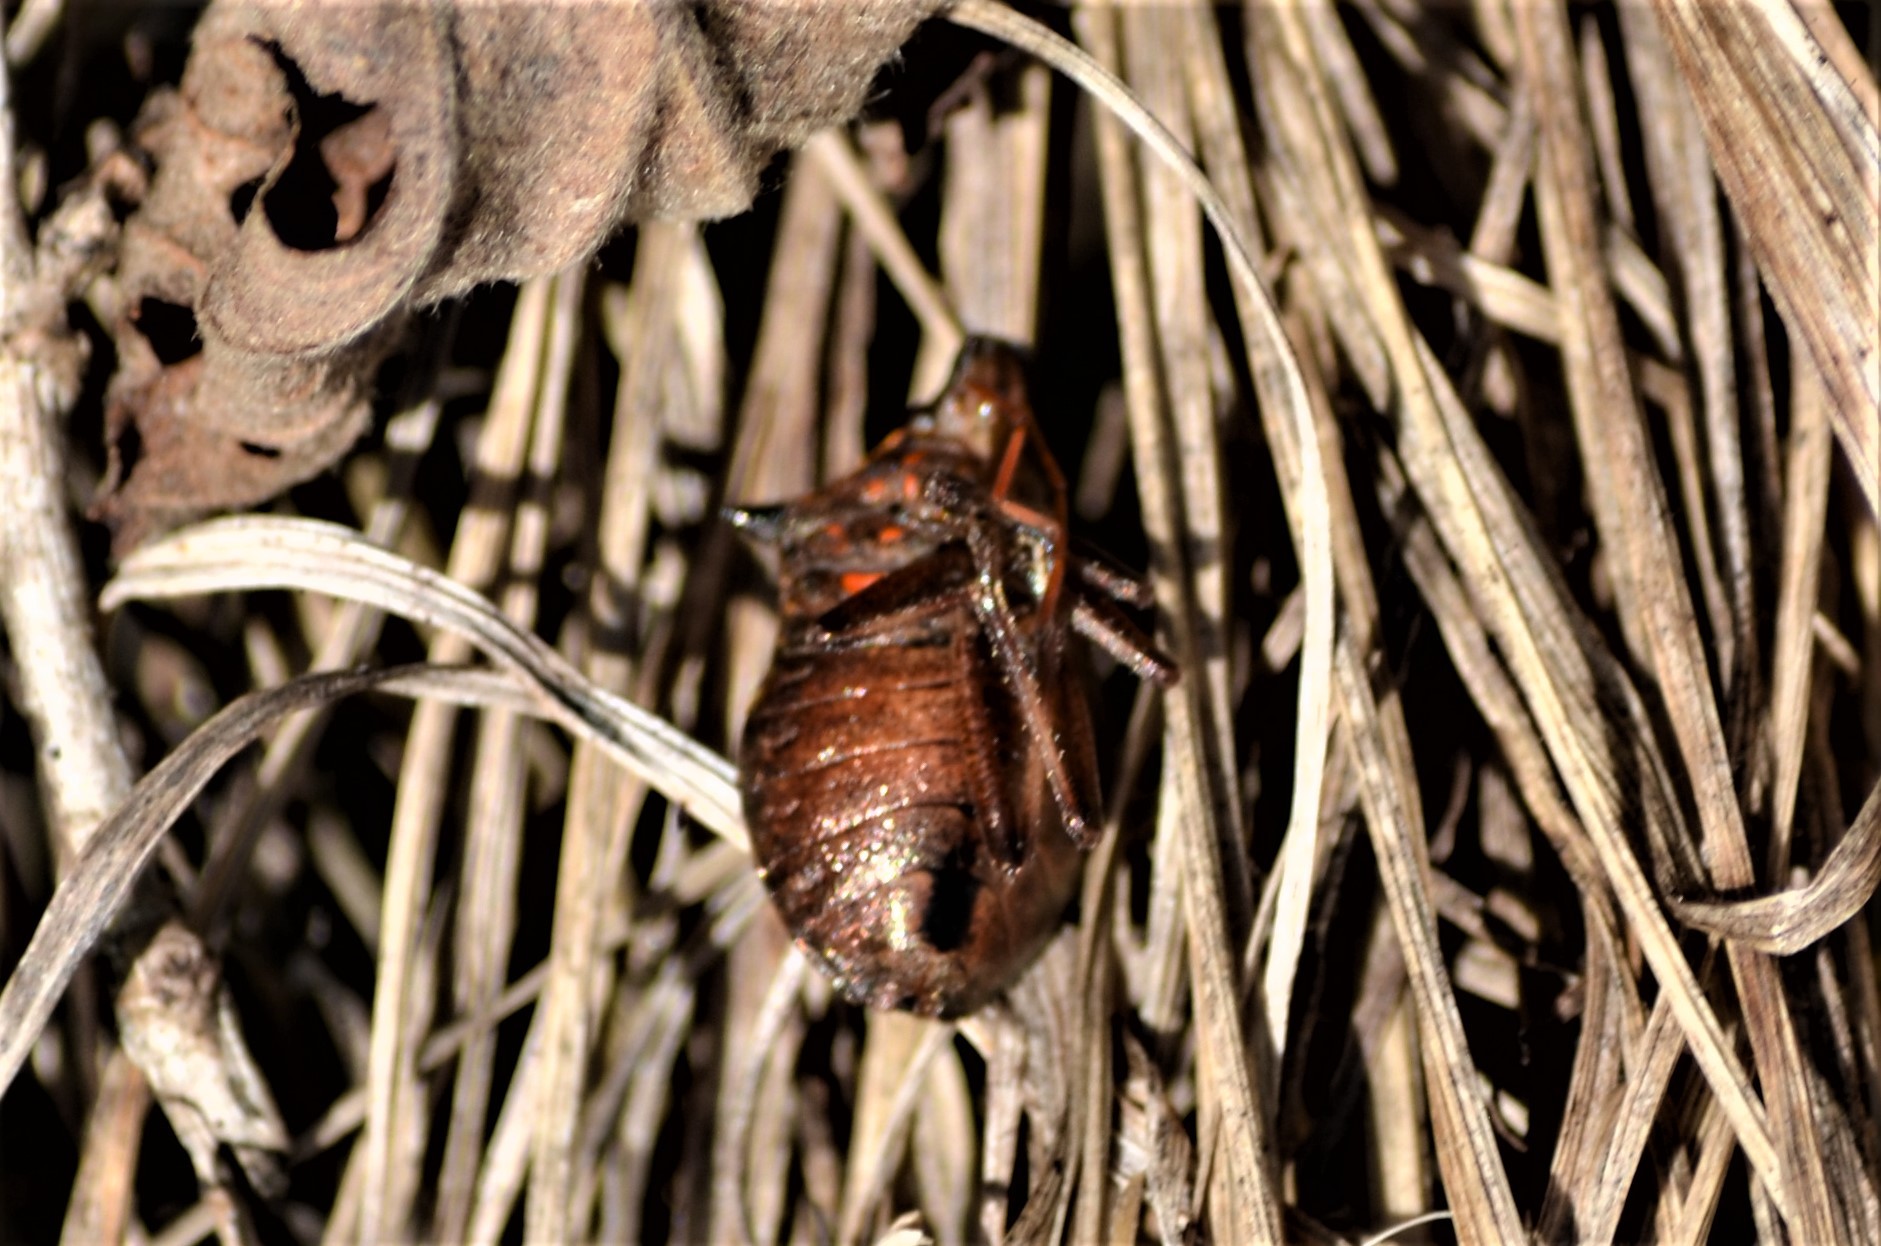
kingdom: Animalia
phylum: Arthropoda
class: Insecta
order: Hemiptera
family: Pentatomidae
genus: Picromerus
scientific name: Picromerus bidens
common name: Spiked shieldbug
